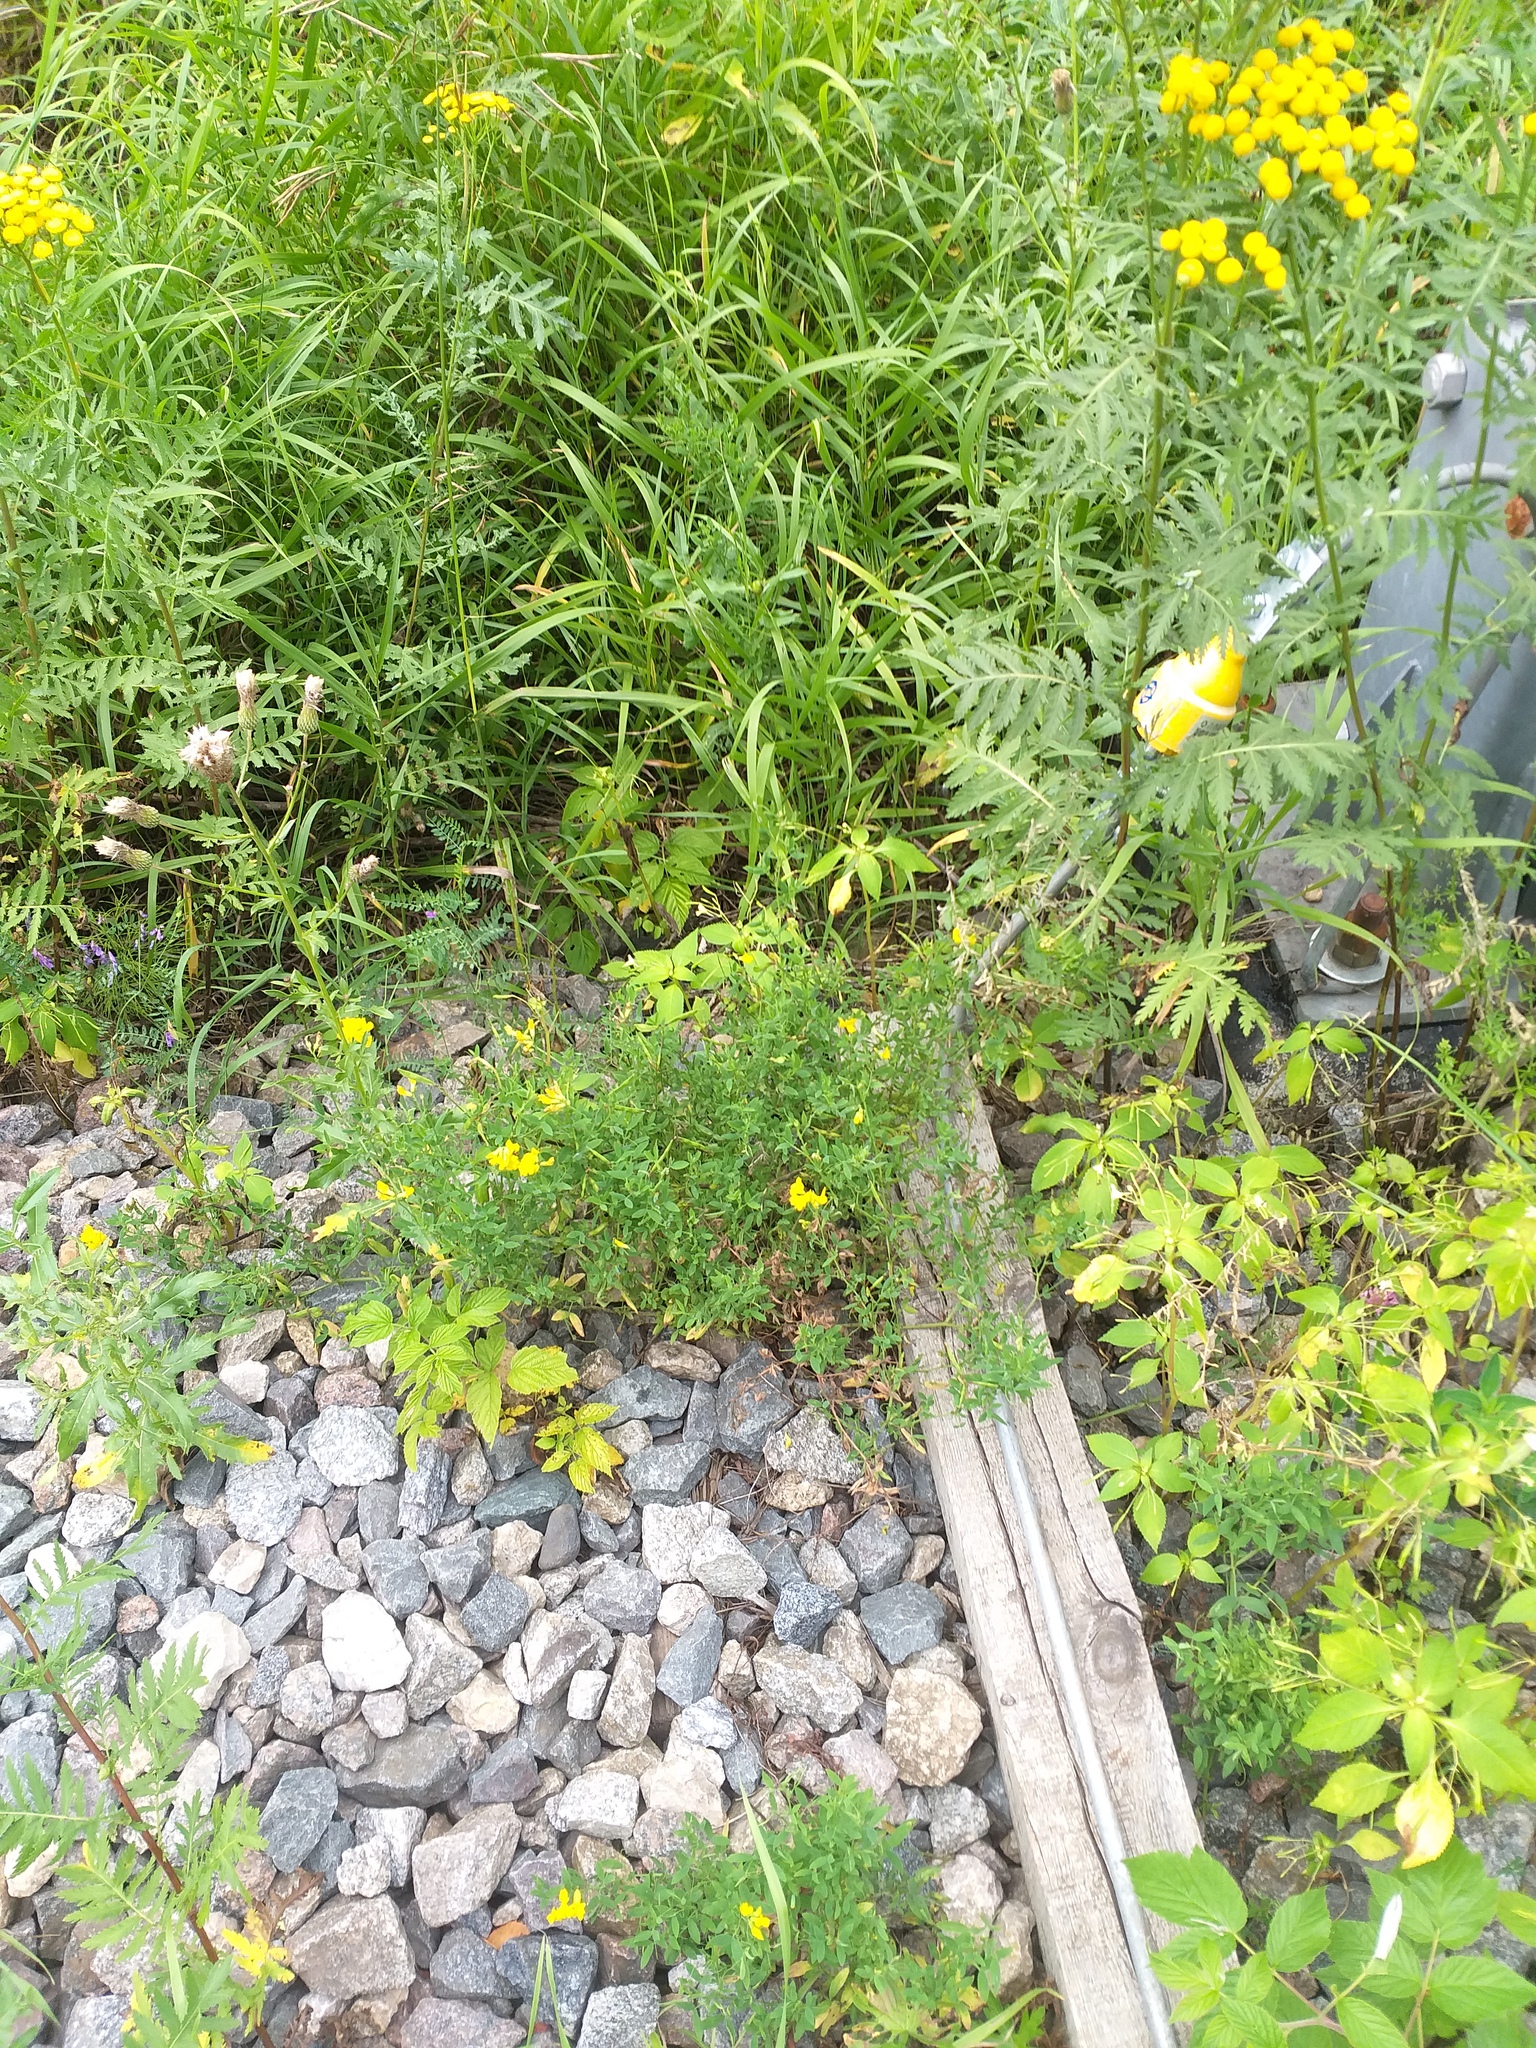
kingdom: Plantae
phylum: Tracheophyta
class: Magnoliopsida
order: Fabales
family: Fabaceae
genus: Lathyrus
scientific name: Lathyrus pratensis
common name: Meadow vetchling
